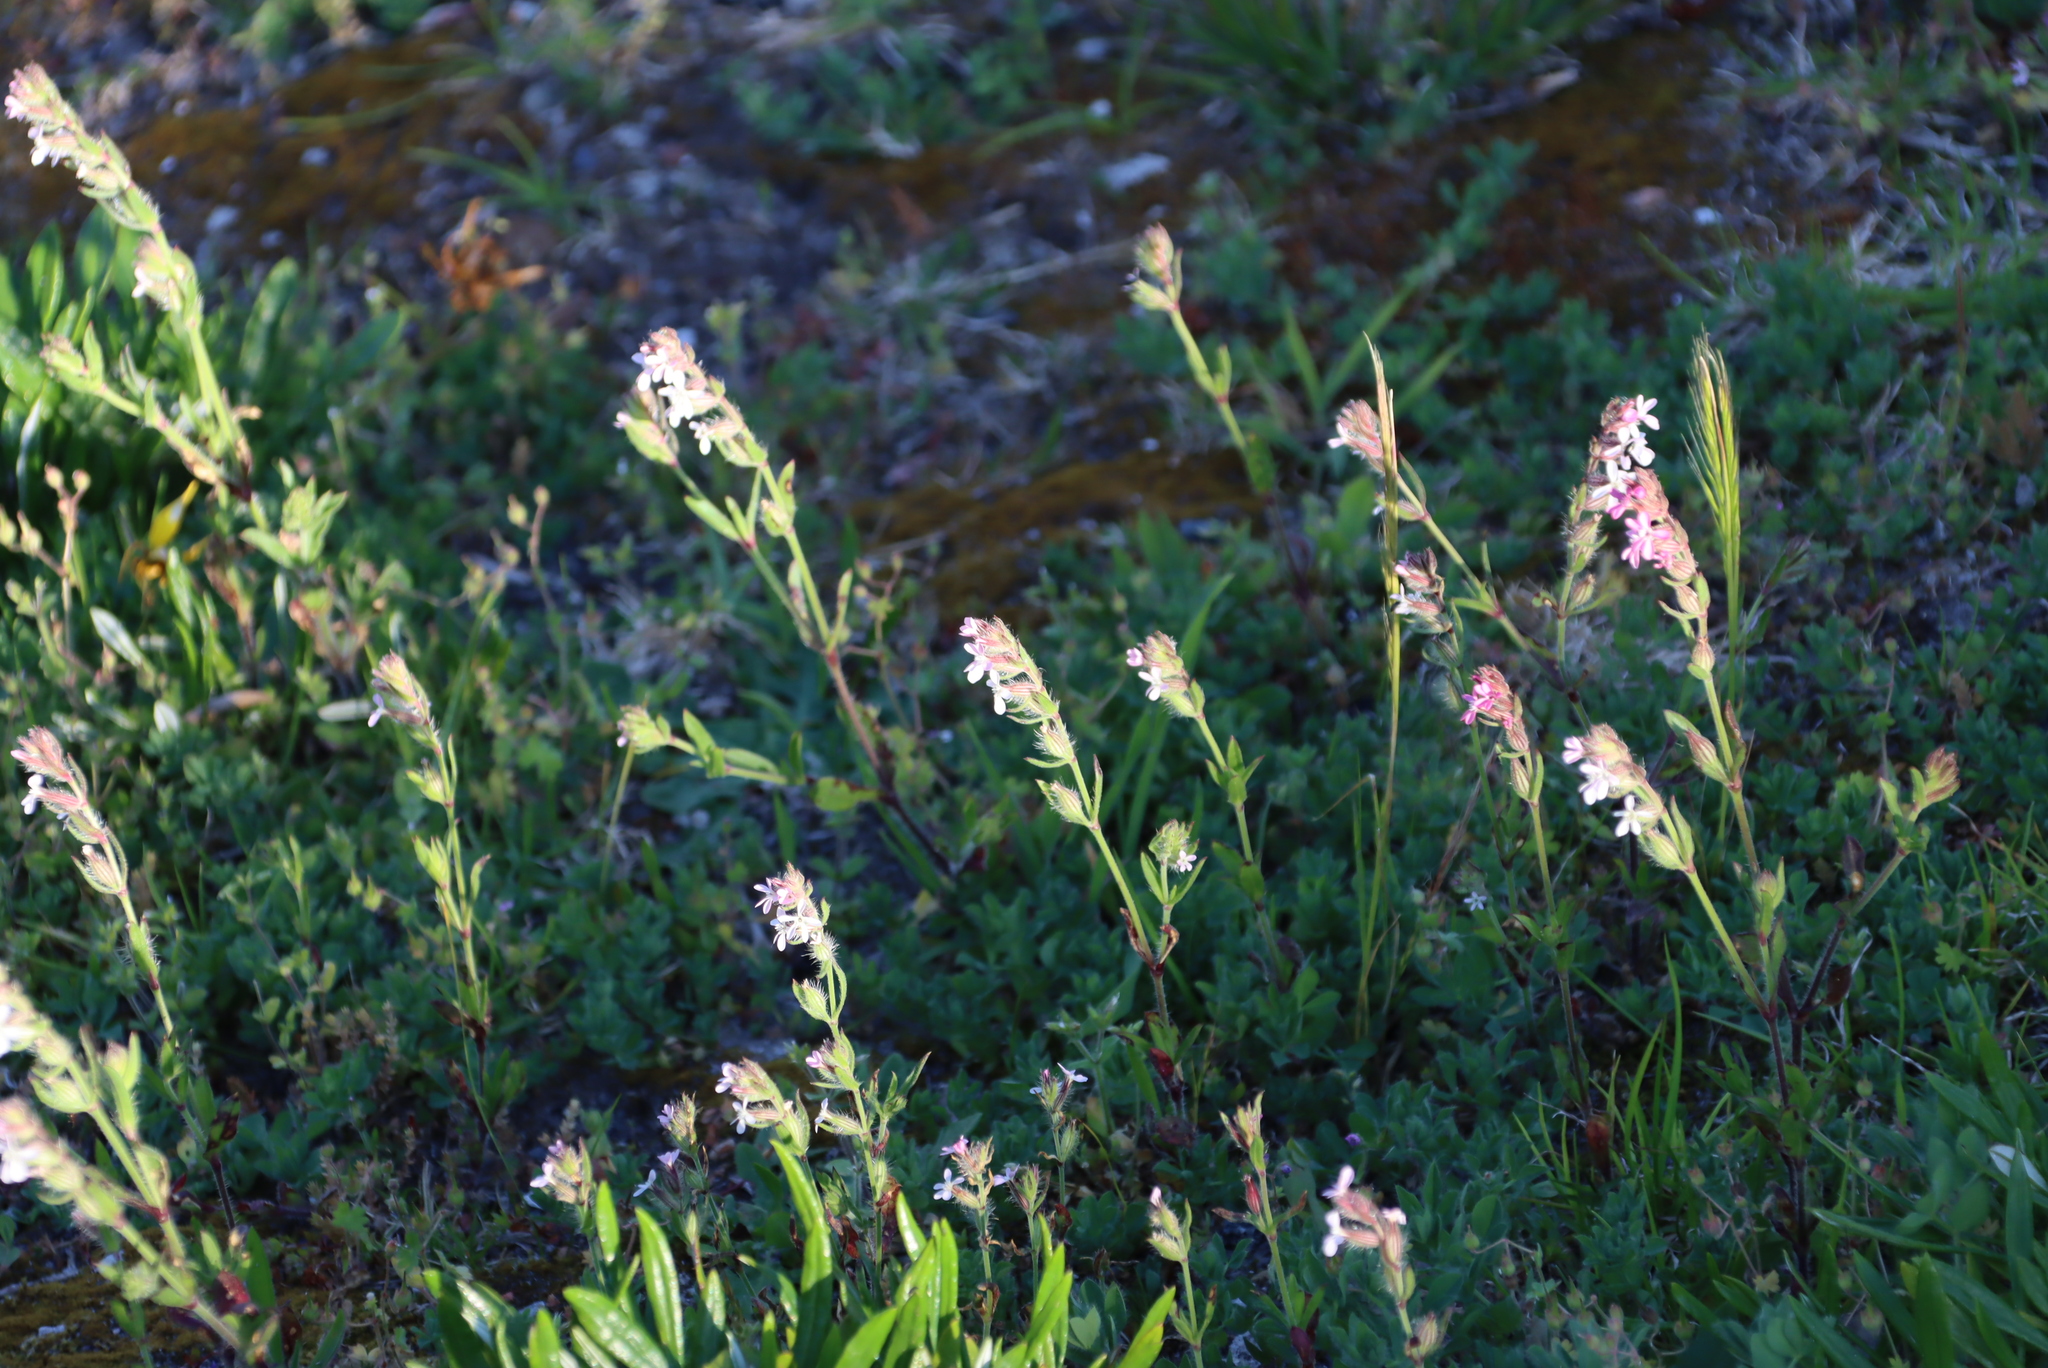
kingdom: Plantae
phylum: Tracheophyta
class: Magnoliopsida
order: Caryophyllales
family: Caryophyllaceae
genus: Silene
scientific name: Silene gallica
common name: Small-flowered catchfly
